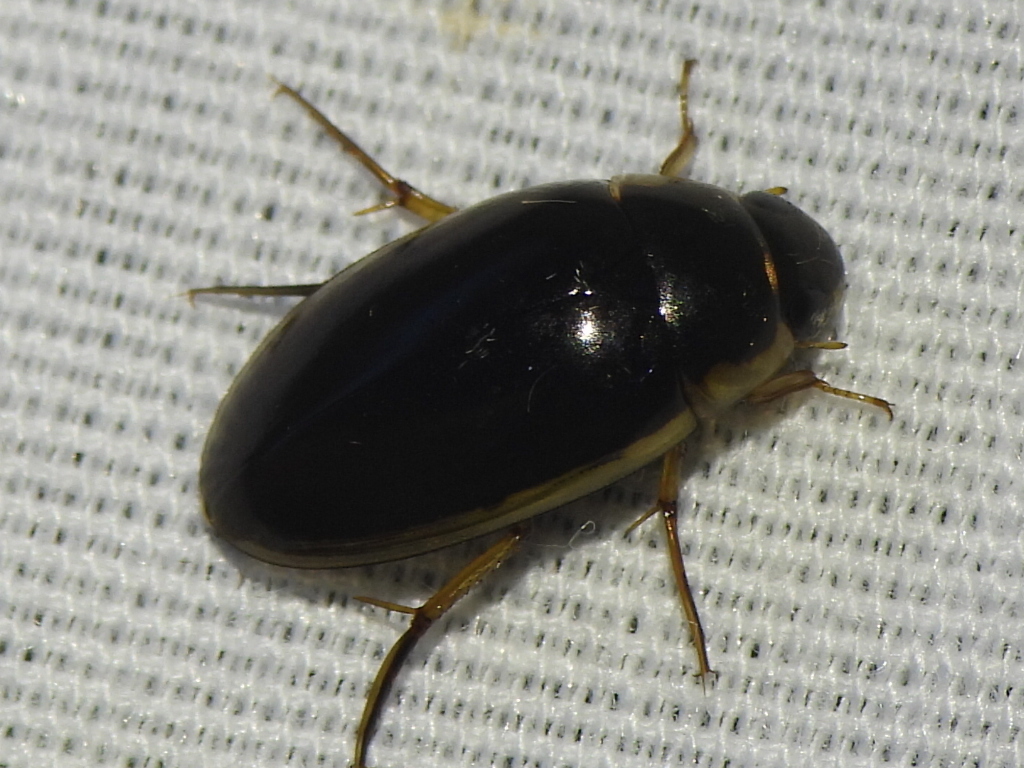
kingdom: Animalia
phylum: Arthropoda
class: Insecta
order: Coleoptera
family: Hydrophilidae
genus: Tropisternus
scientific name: Tropisternus lateralis
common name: Lateral-banded water scavenger beetle
